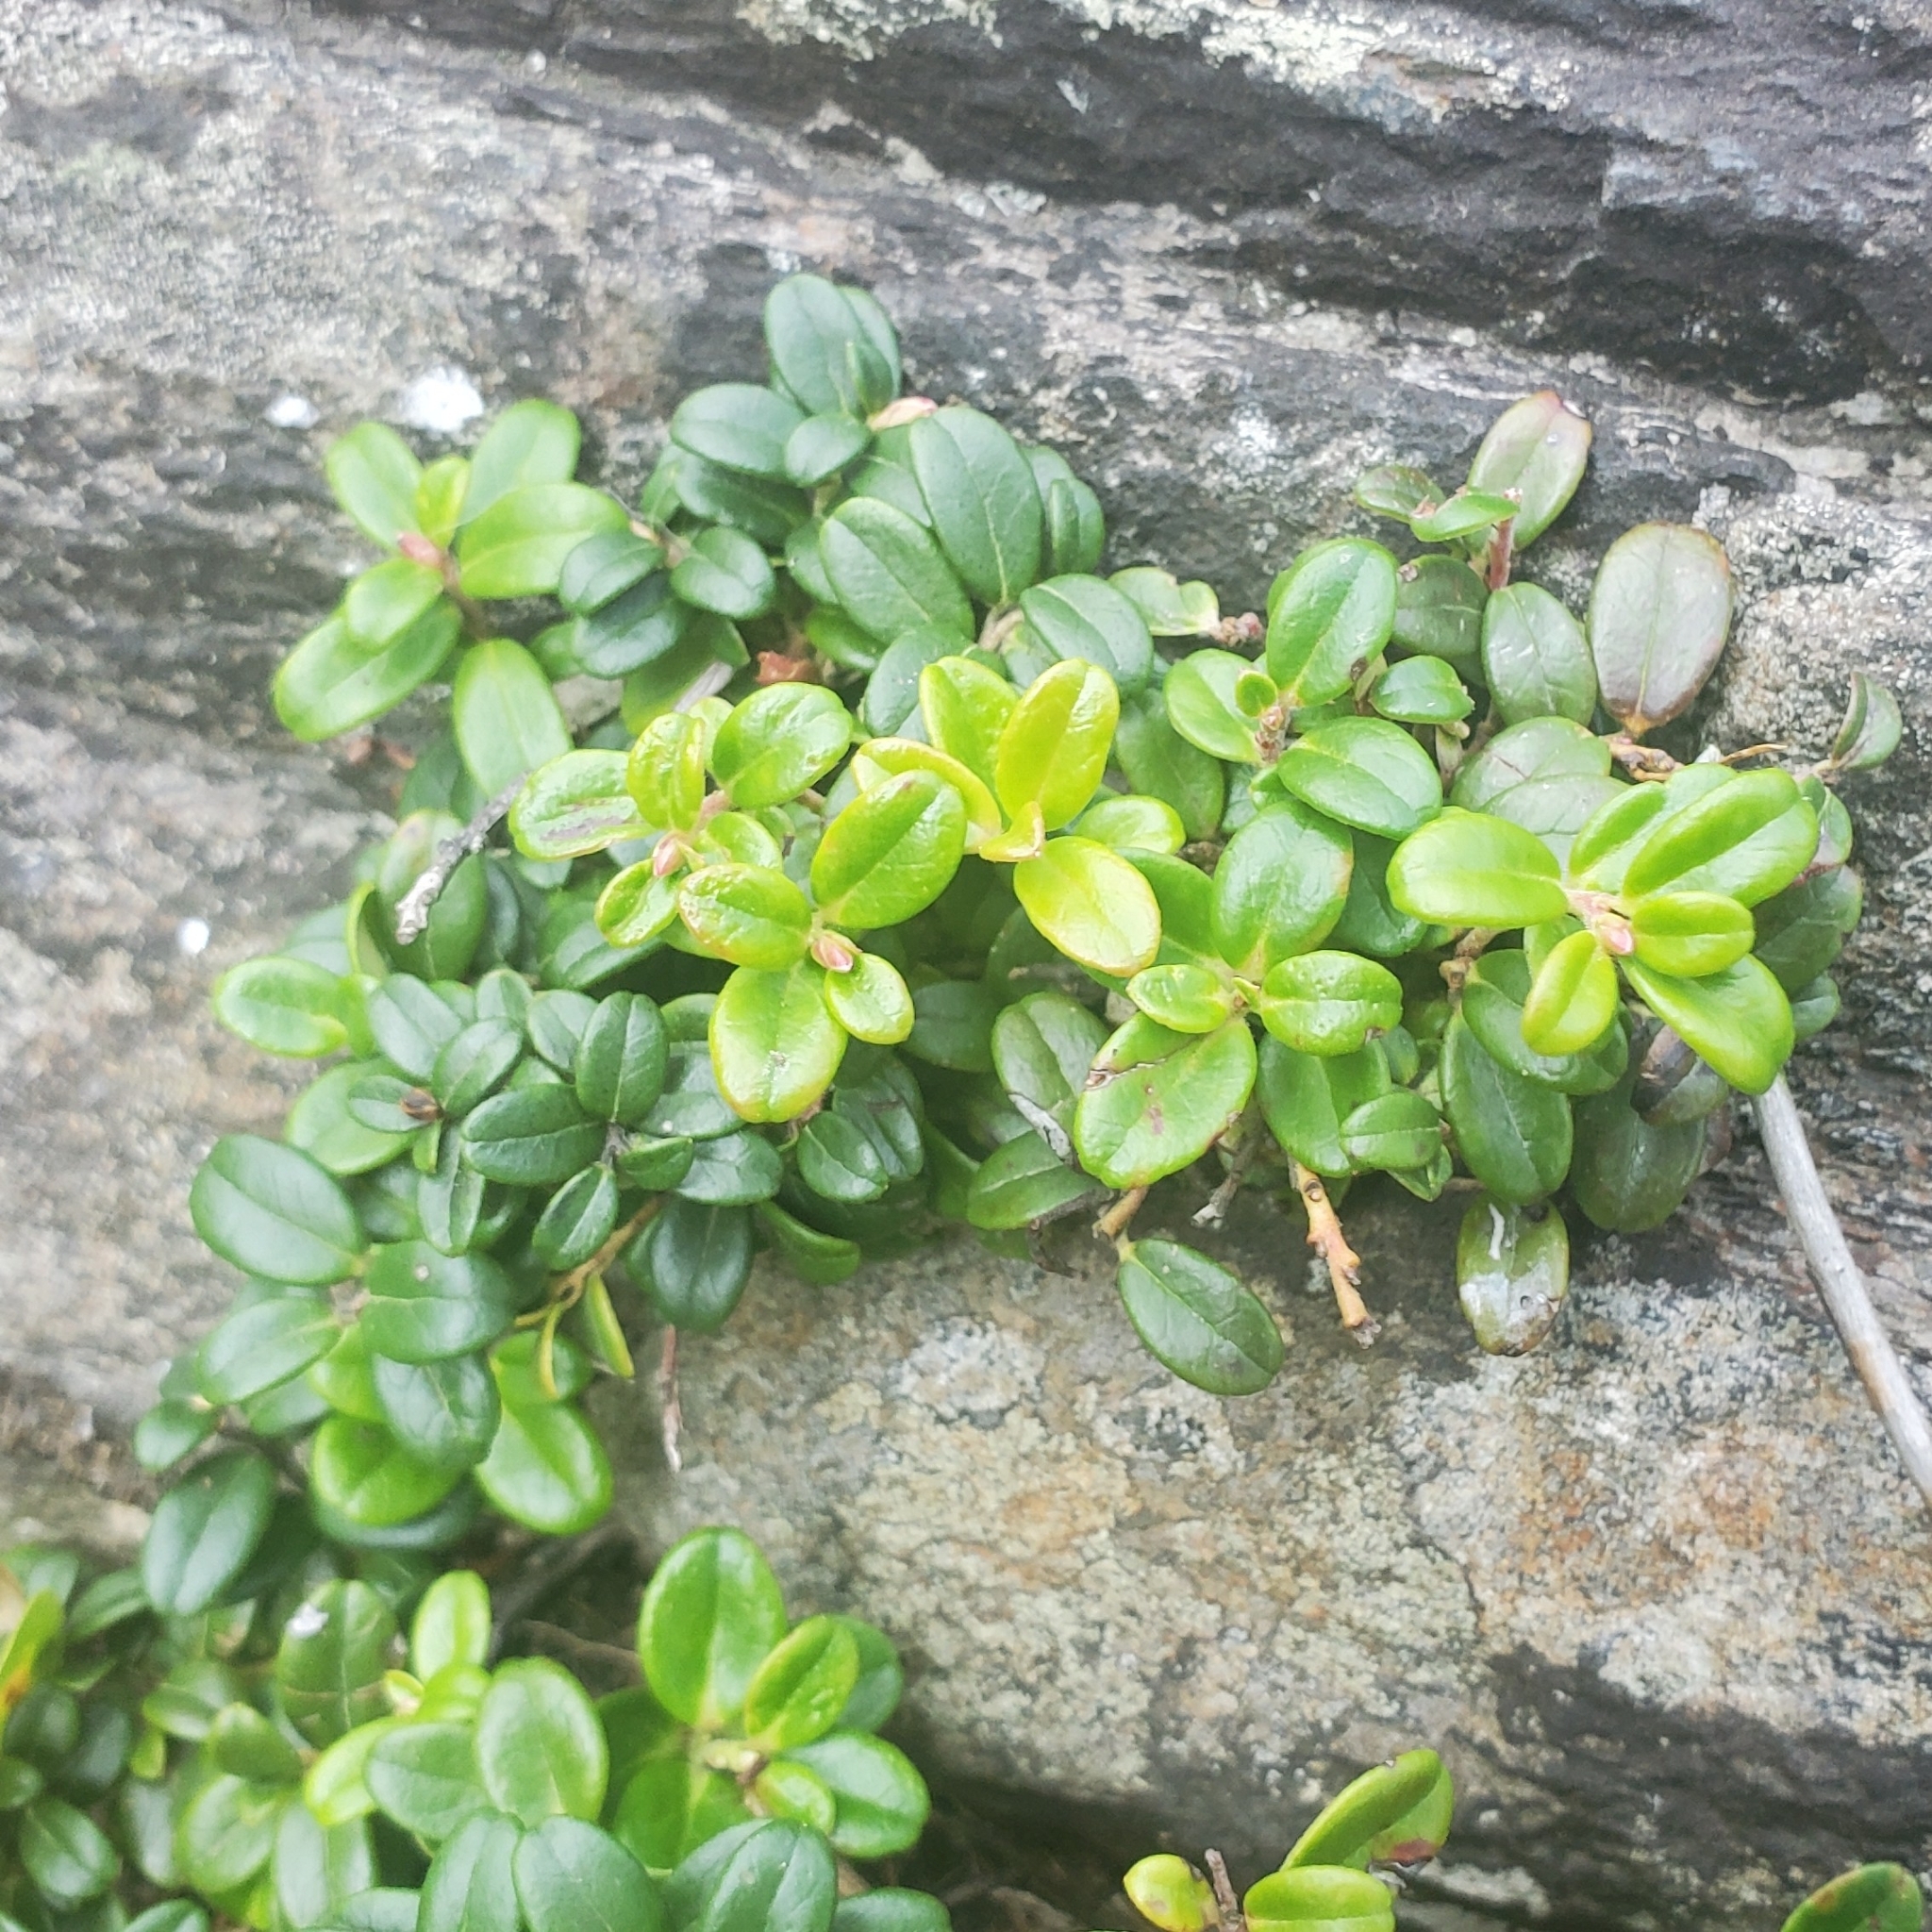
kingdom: Plantae
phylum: Tracheophyta
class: Magnoliopsida
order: Ericales
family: Ericaceae
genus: Vaccinium
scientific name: Vaccinium vitis-idaea
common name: Cowberry
